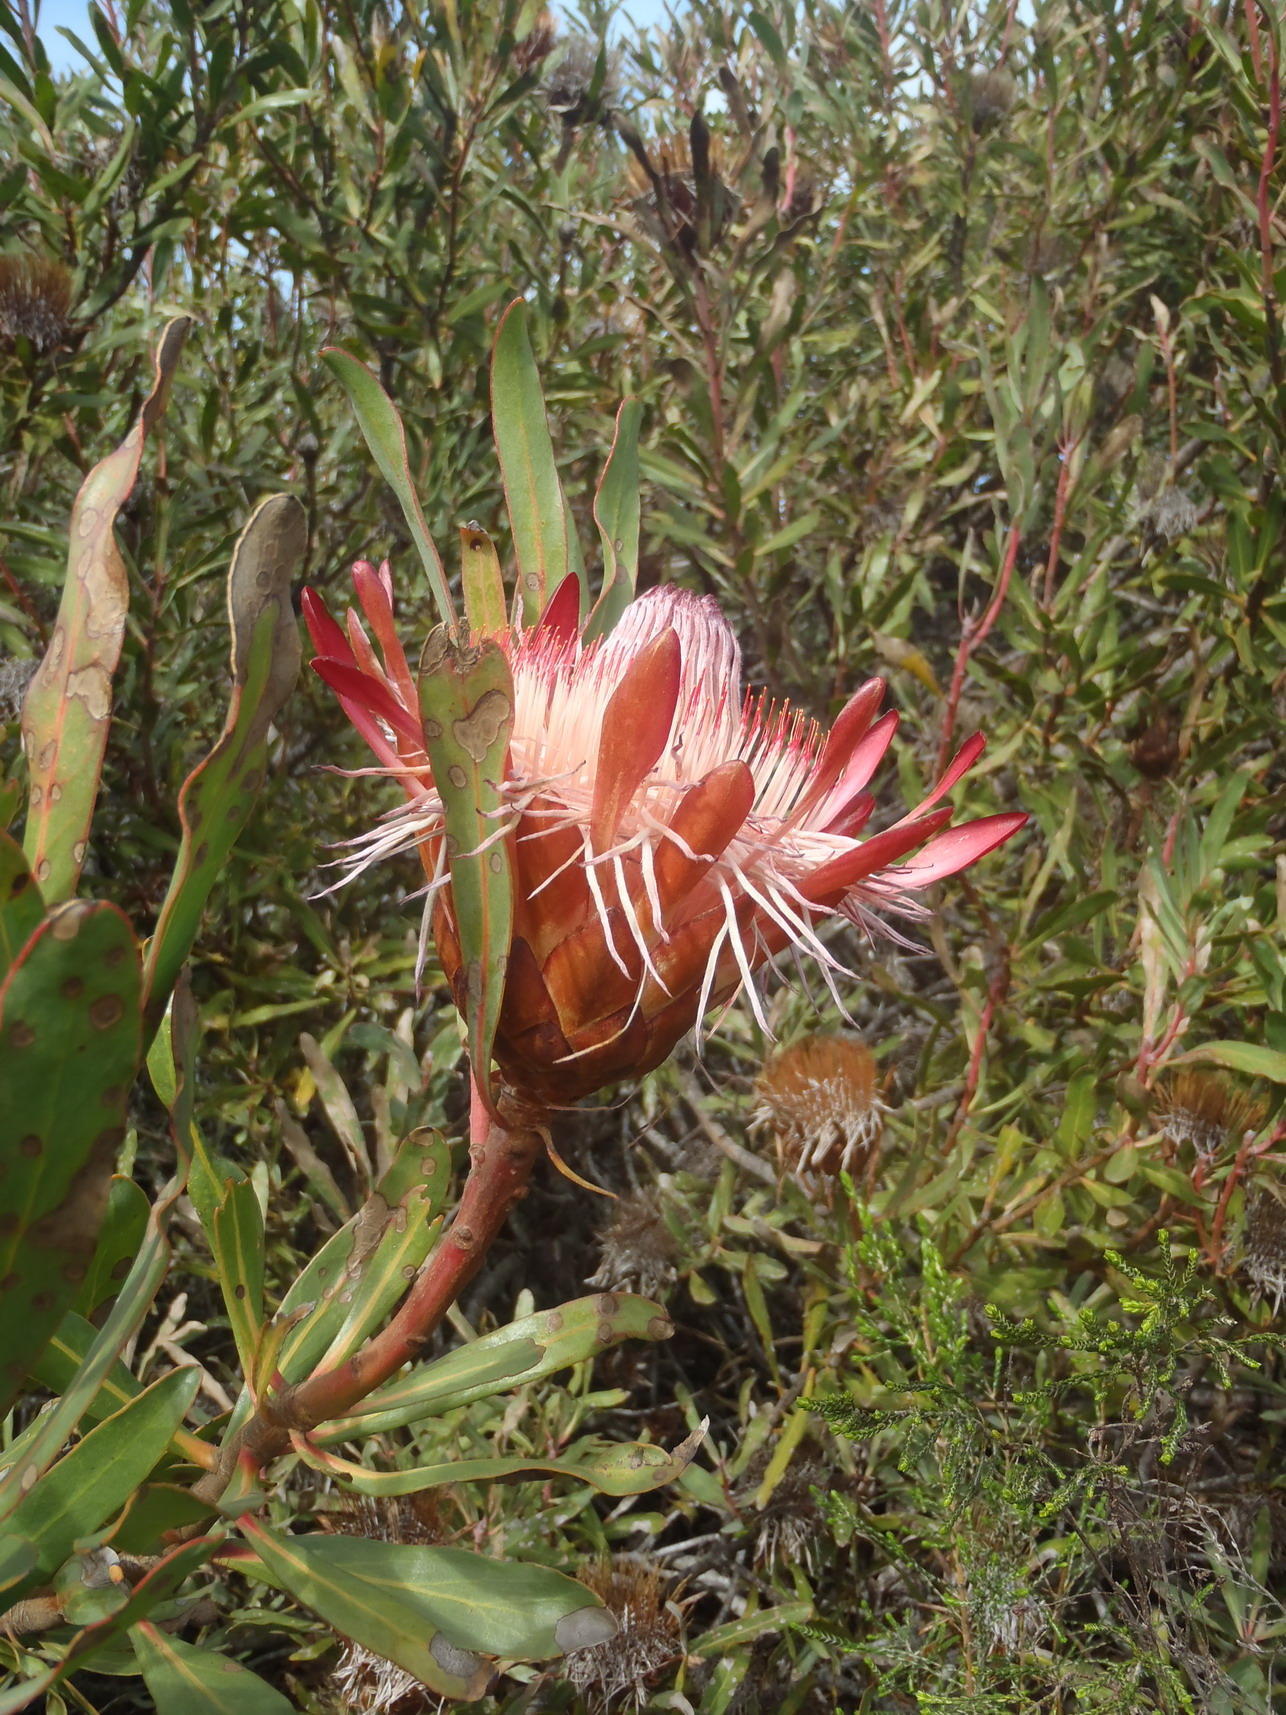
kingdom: Plantae
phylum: Tracheophyta
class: Magnoliopsida
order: Proteales
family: Proteaceae
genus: Protea
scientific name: Protea susannae
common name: Foetid-leaf sugarbush
